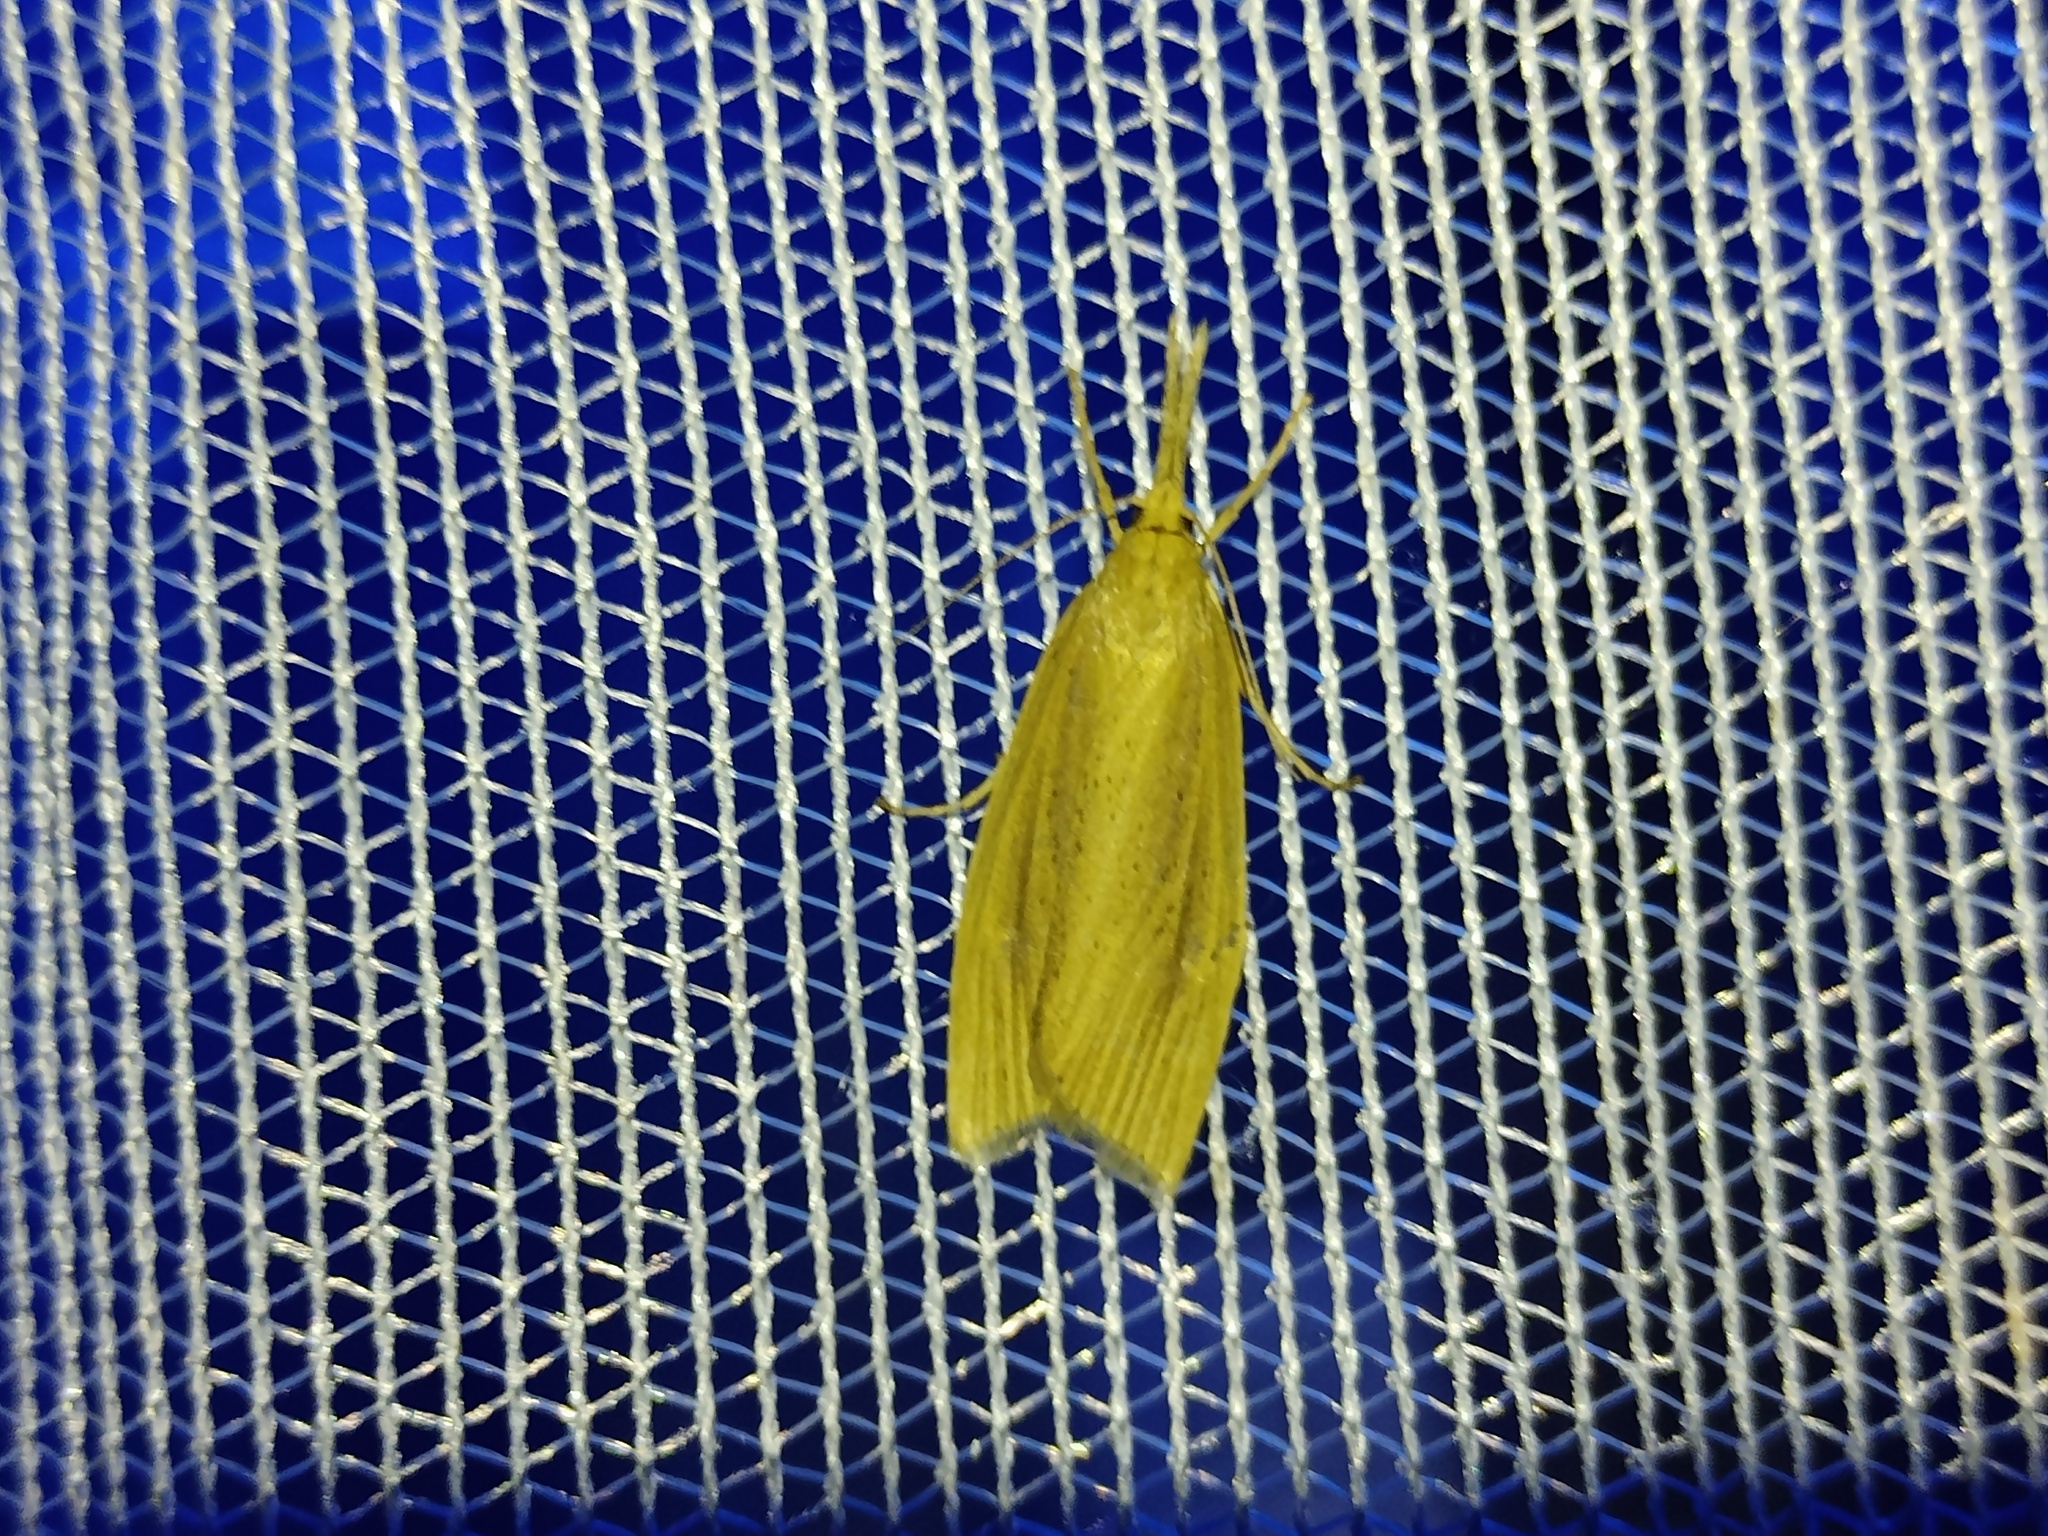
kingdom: Animalia
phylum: Arthropoda
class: Insecta
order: Lepidoptera
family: Crambidae
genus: Chilo
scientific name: Chilo phragmitella
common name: Reed veneer
